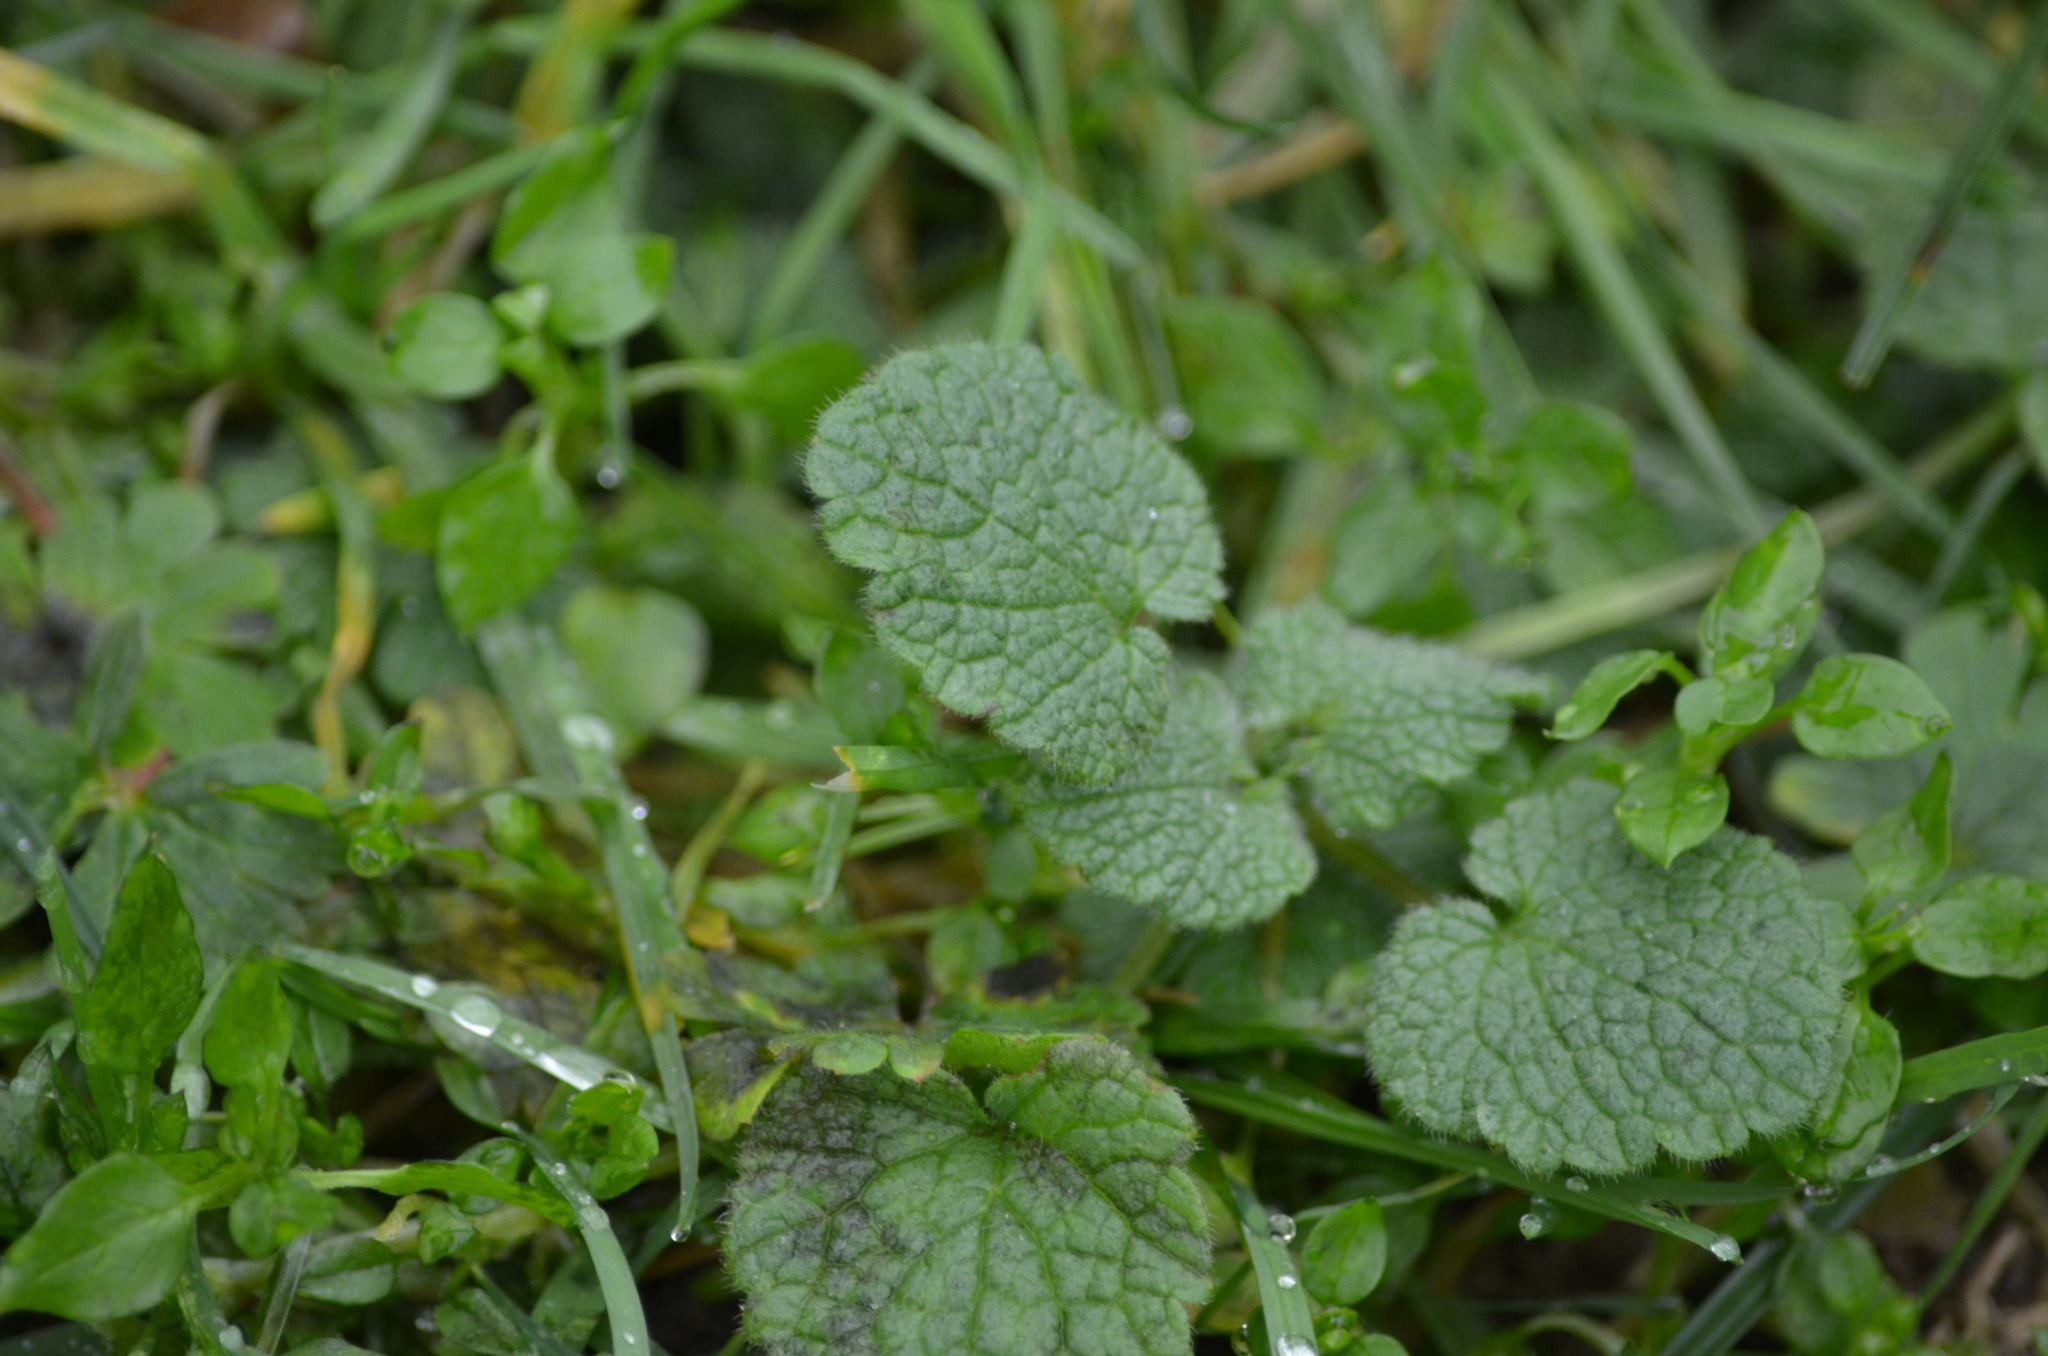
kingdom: Plantae
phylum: Tracheophyta
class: Magnoliopsida
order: Lamiales
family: Lamiaceae
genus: Lamium
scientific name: Lamium purpureum
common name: Red dead-nettle
